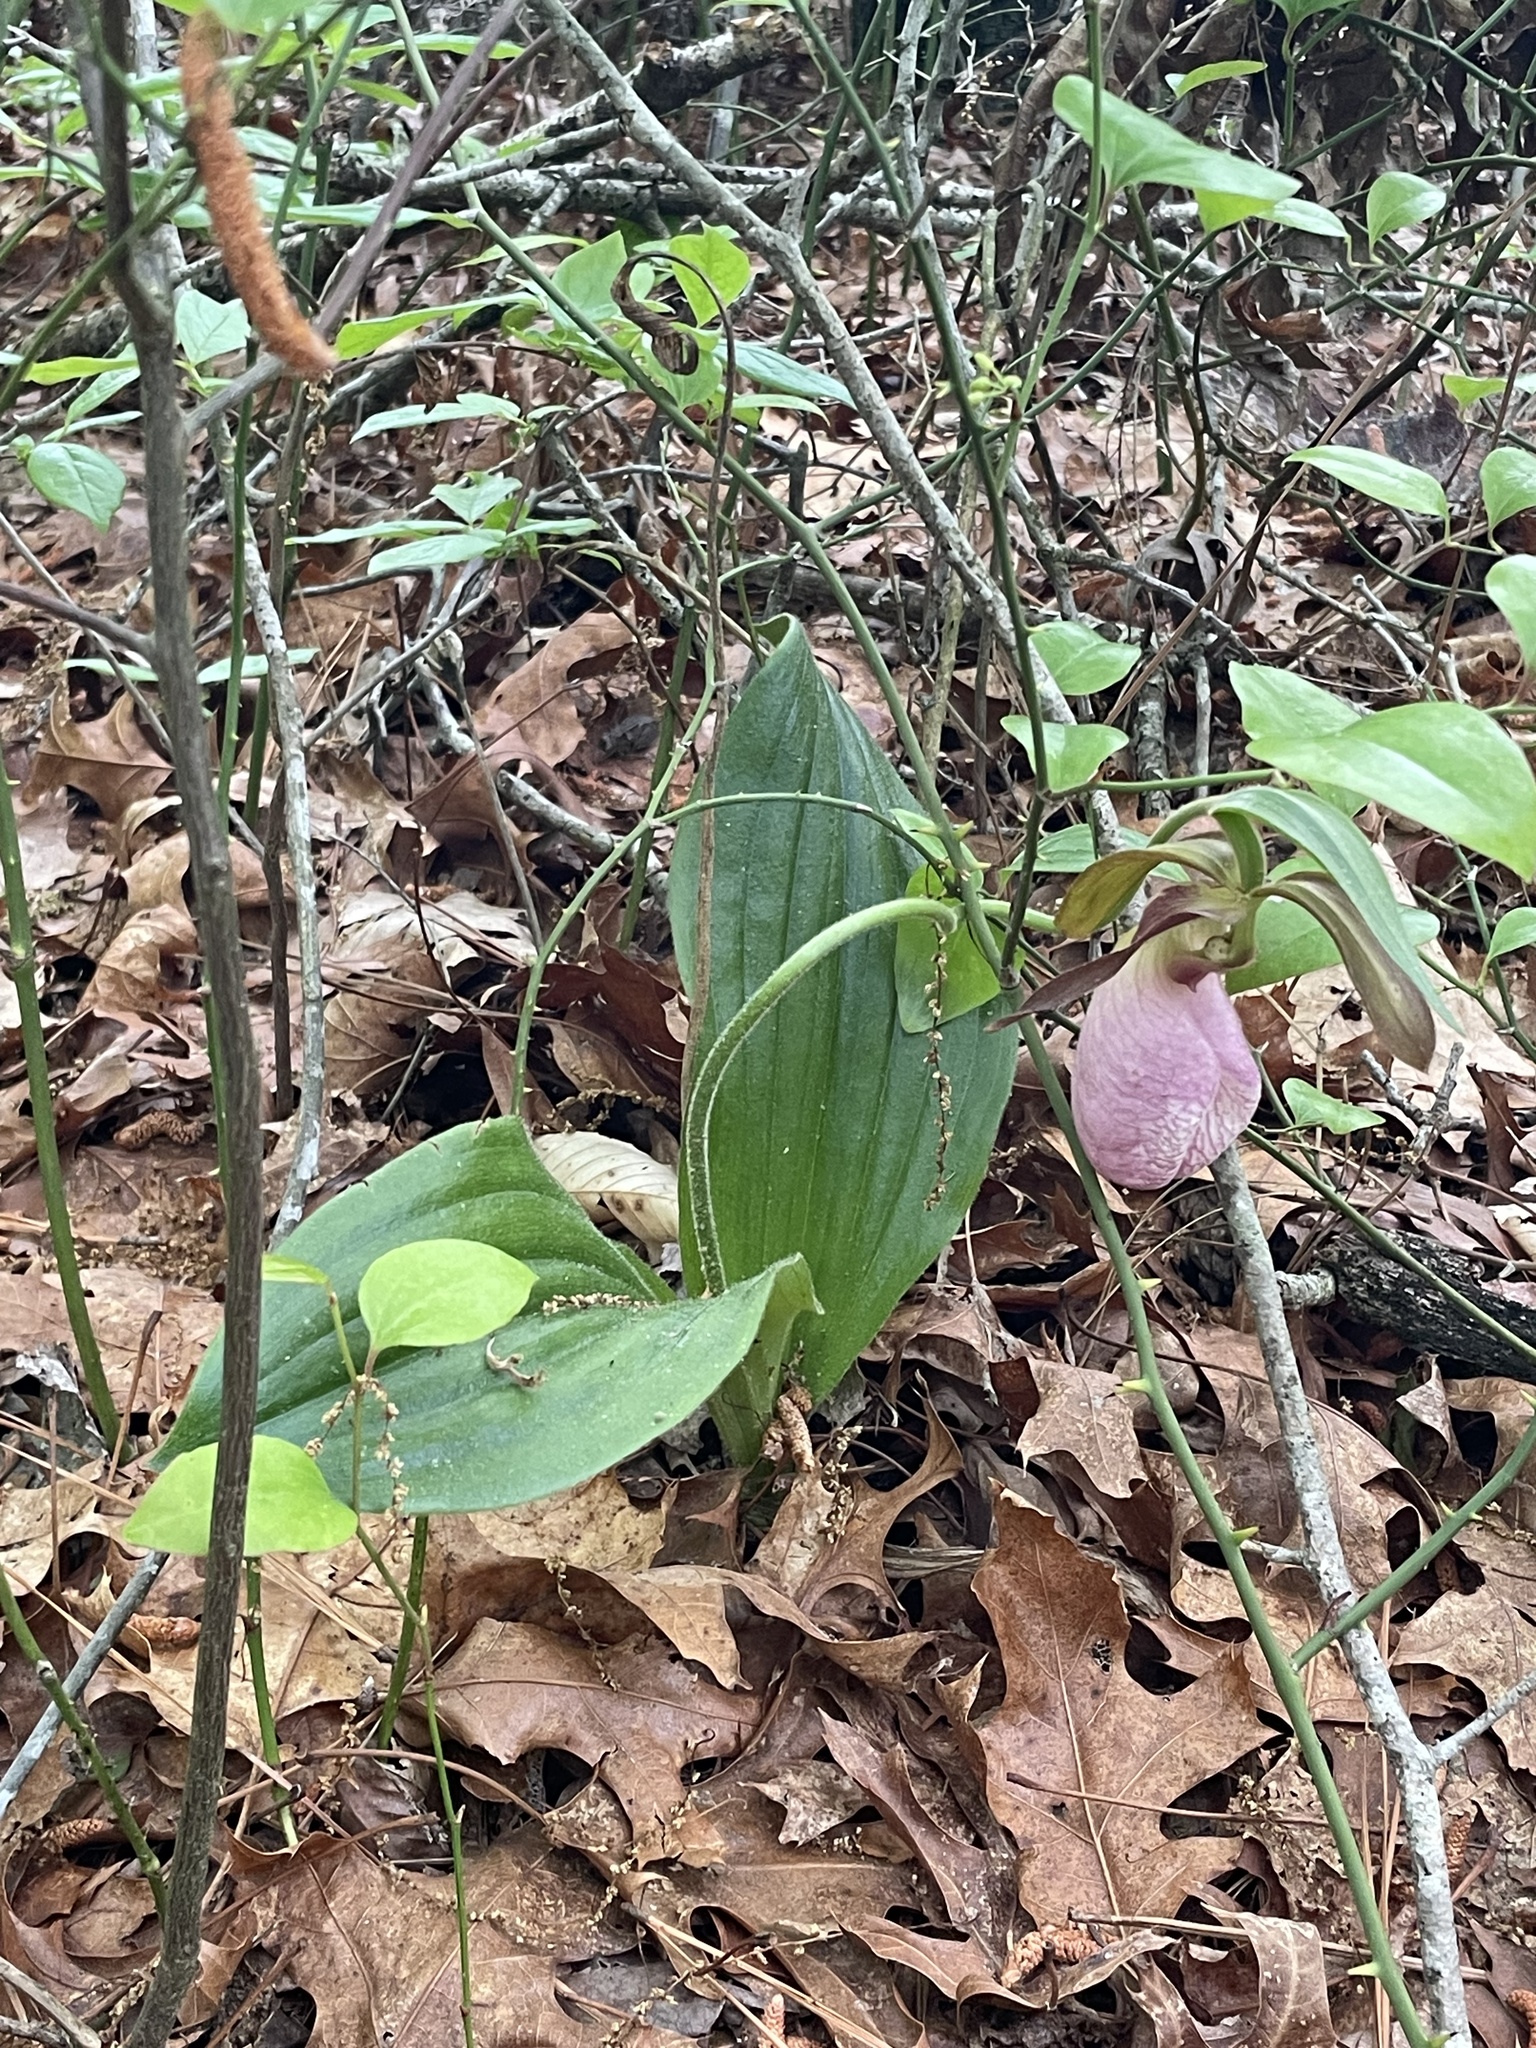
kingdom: Plantae
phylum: Tracheophyta
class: Liliopsida
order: Asparagales
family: Orchidaceae
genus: Cypripedium
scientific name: Cypripedium acaule
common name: Pink lady's-slipper
